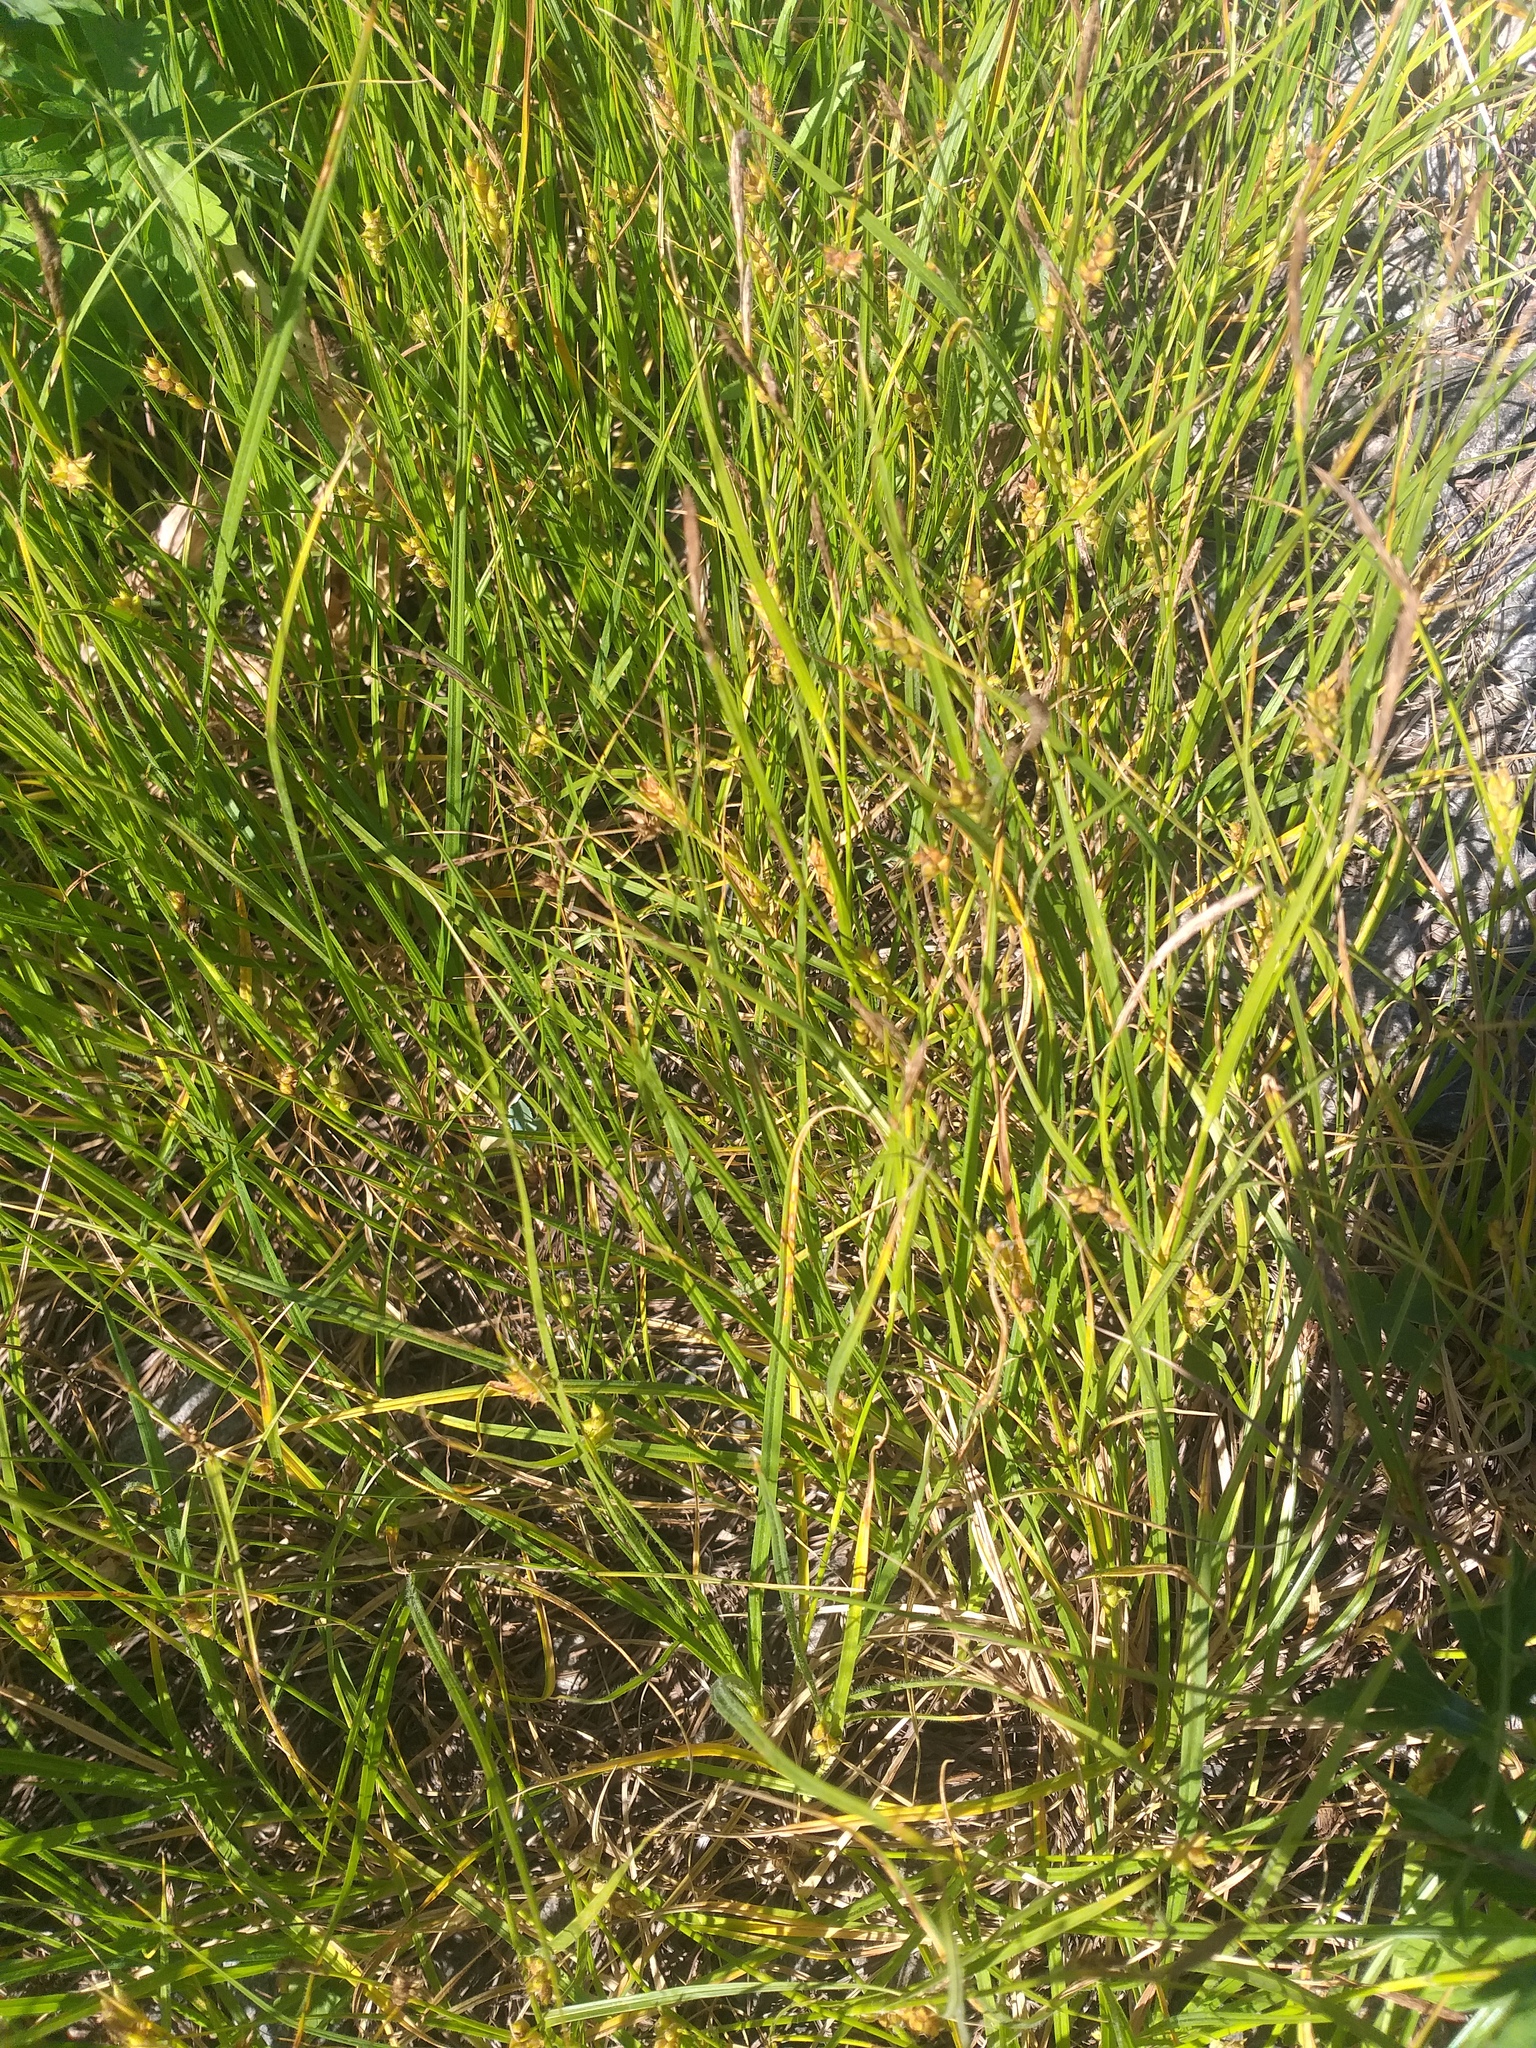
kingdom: Plantae
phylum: Tracheophyta
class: Liliopsida
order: Poales
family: Cyperaceae
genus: Carex
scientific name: Carex hirta
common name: Hairy sedge
